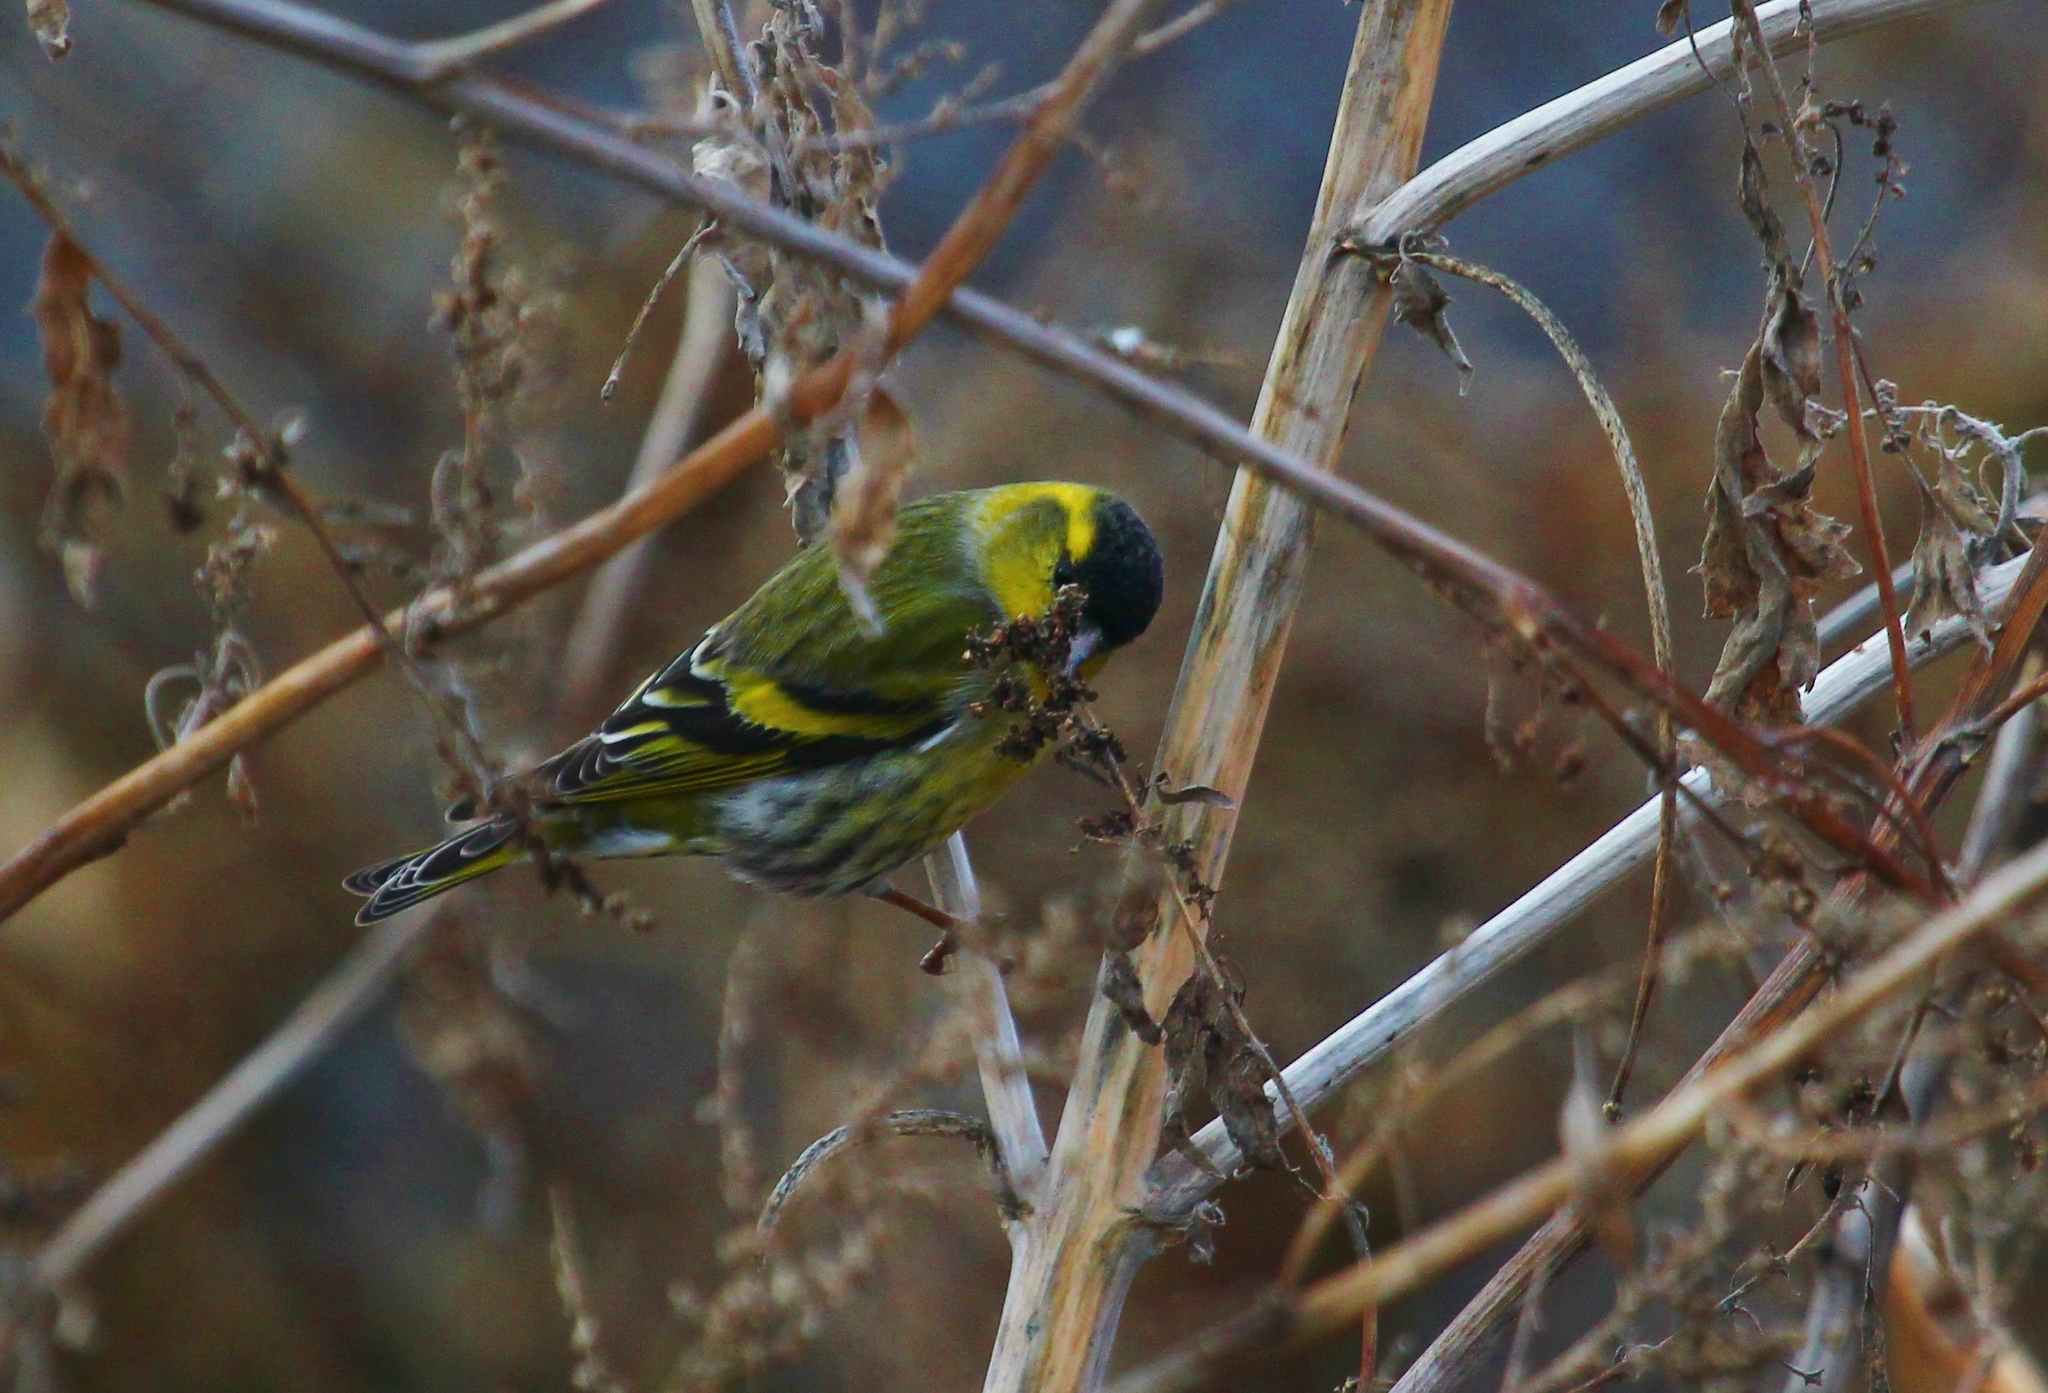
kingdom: Animalia
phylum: Chordata
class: Aves
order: Passeriformes
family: Fringillidae
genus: Spinus
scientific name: Spinus spinus
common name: Eurasian siskin
